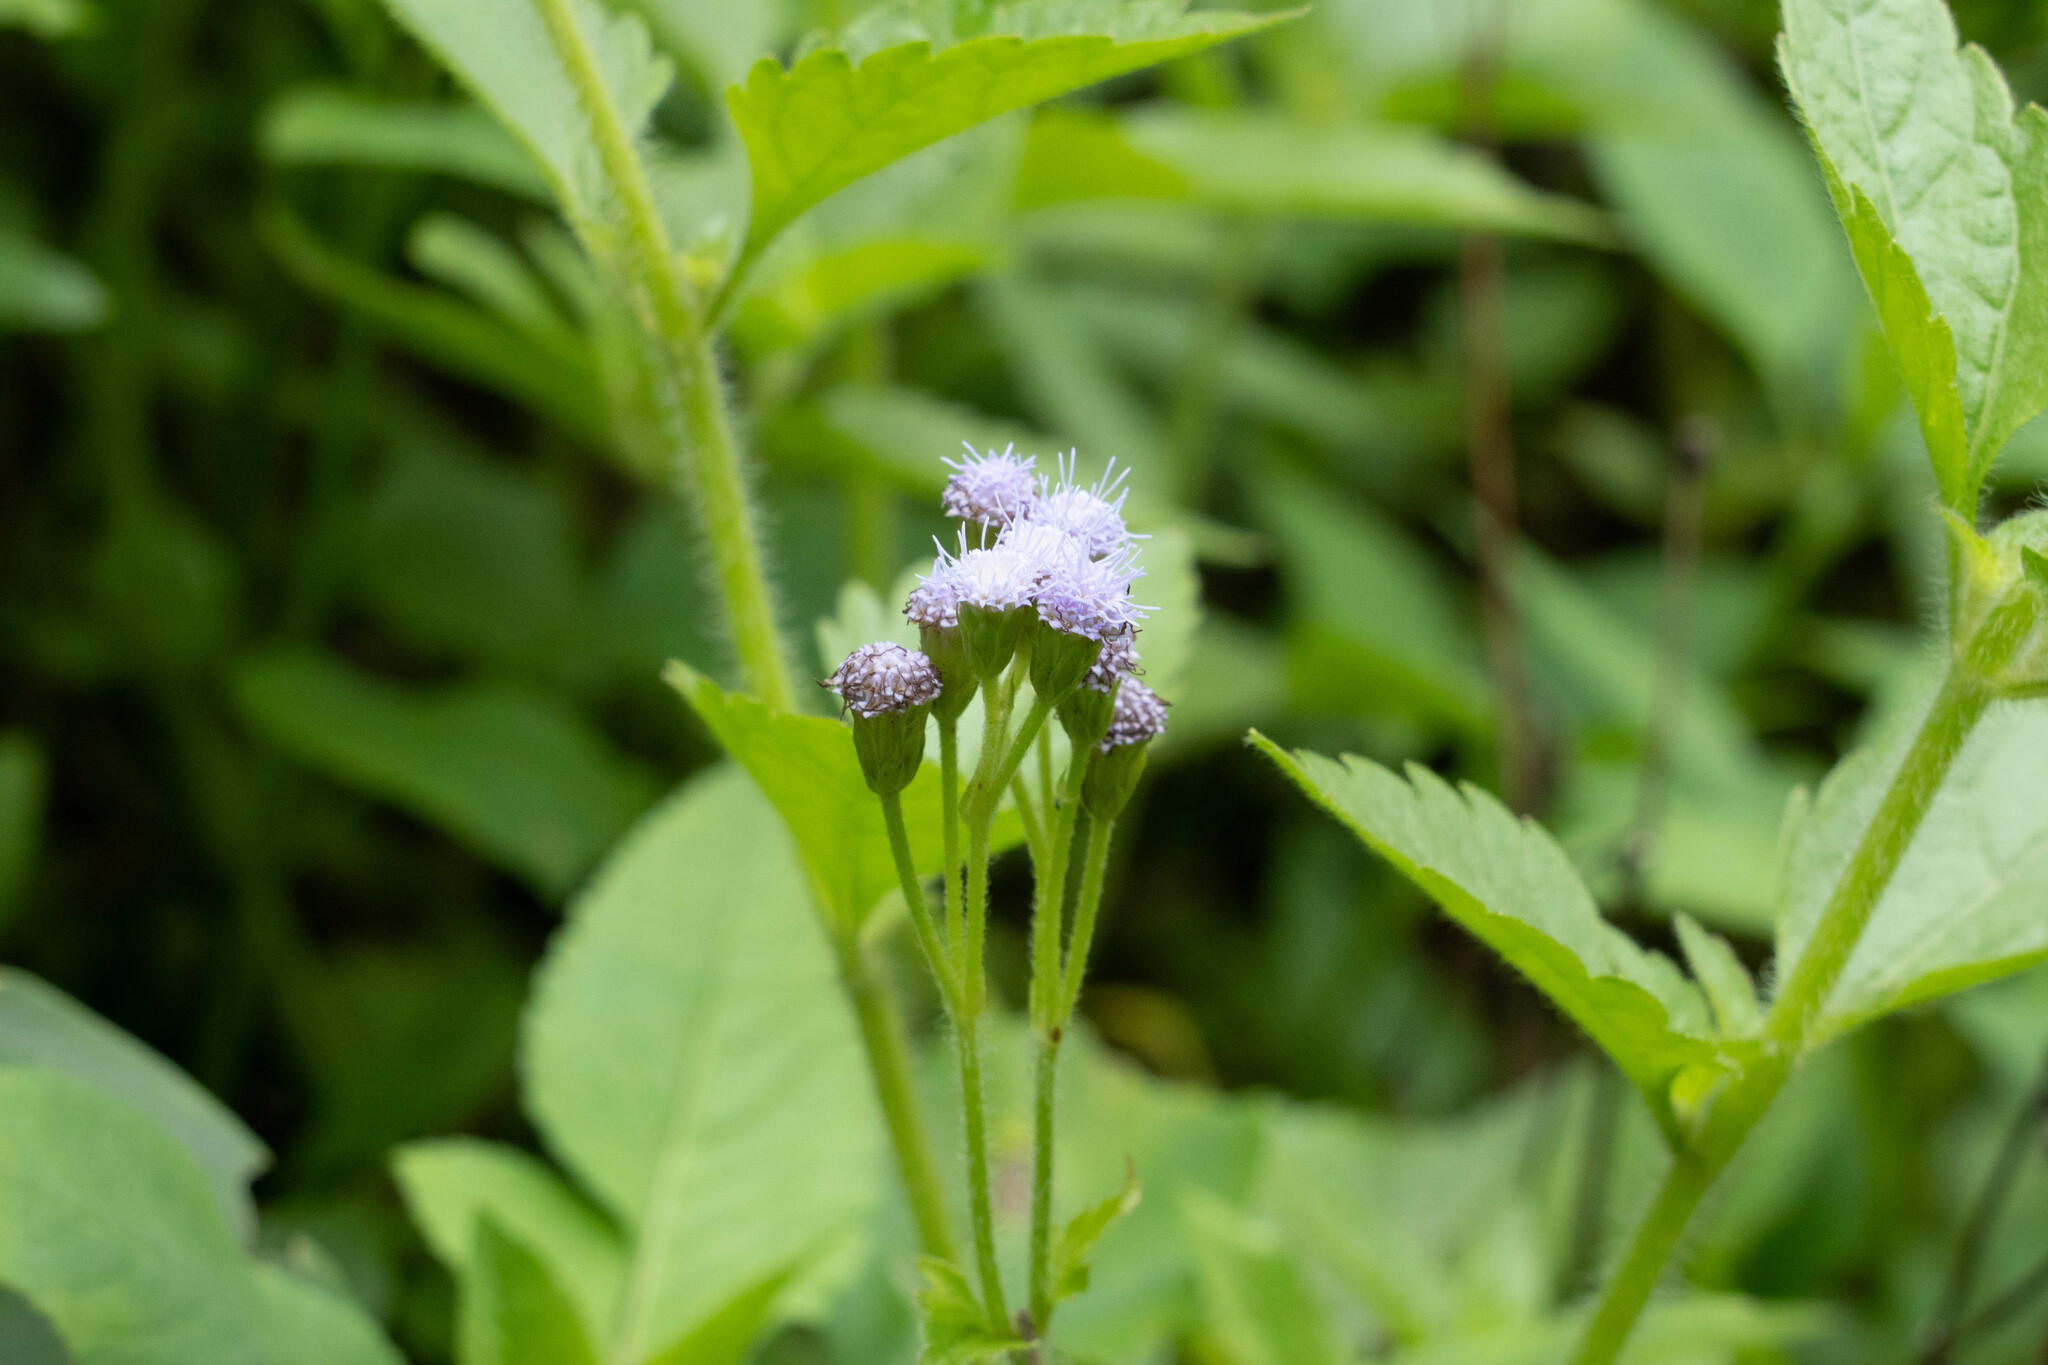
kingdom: Plantae
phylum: Tracheophyta
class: Magnoliopsida
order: Asterales
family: Asteraceae
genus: Praxelis
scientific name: Praxelis clematidea
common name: Praxelis
